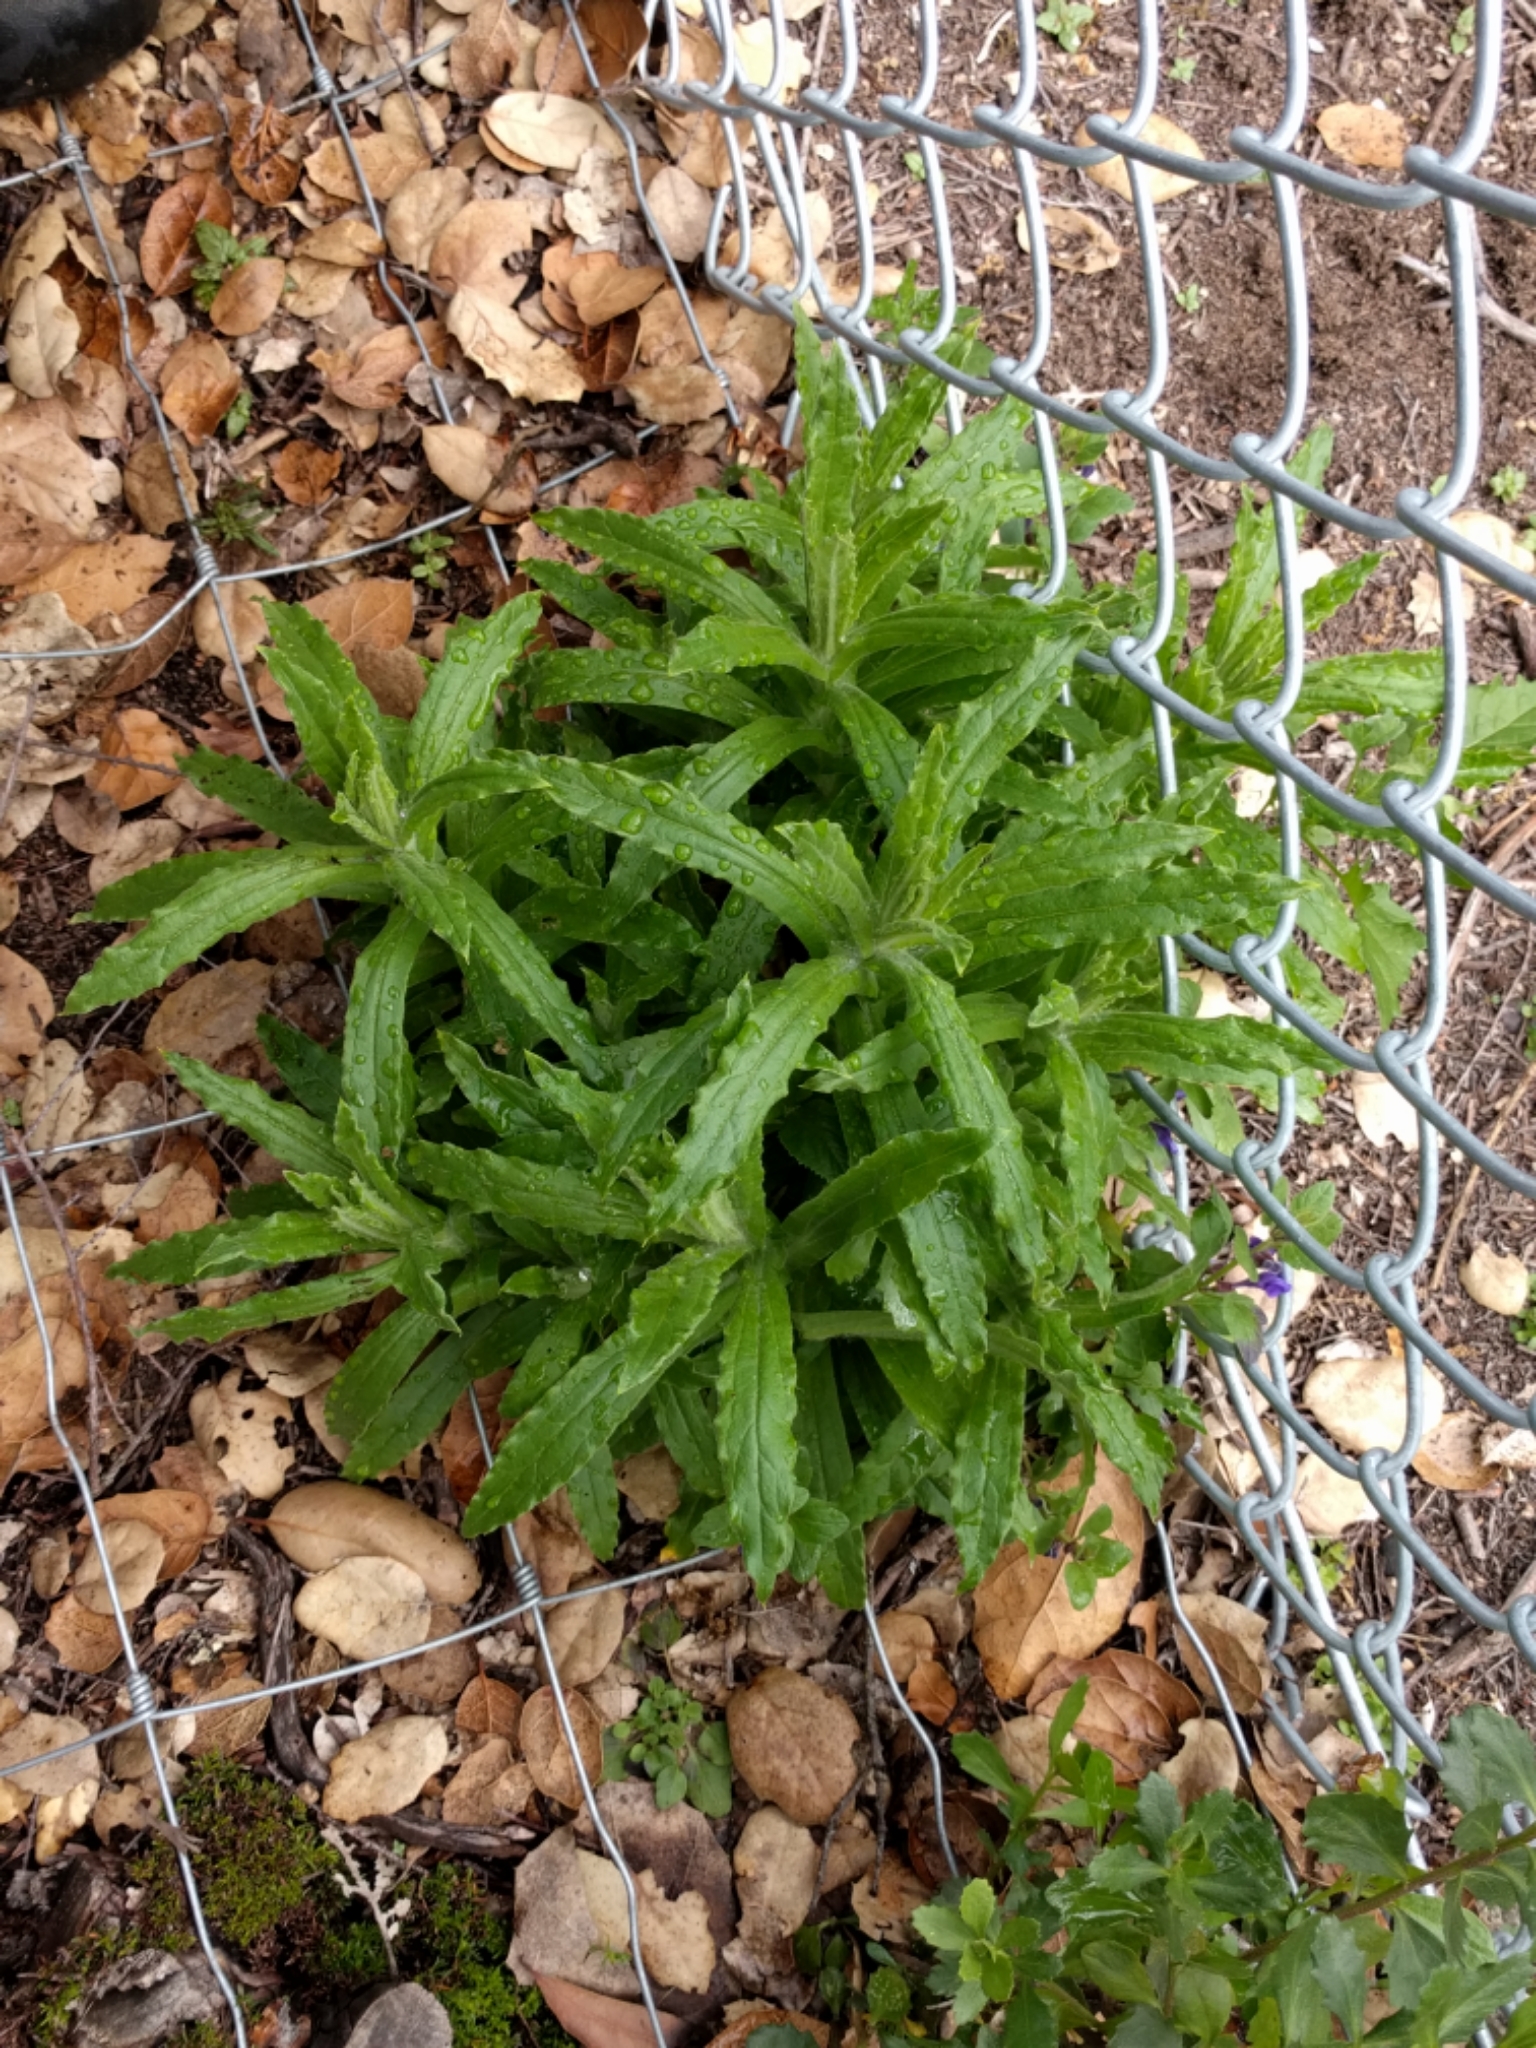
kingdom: Plantae
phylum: Tracheophyta
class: Magnoliopsida
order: Asterales
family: Asteraceae
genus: Pseudognaphalium
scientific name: Pseudognaphalium californicum
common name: California rabbit-tobacco
